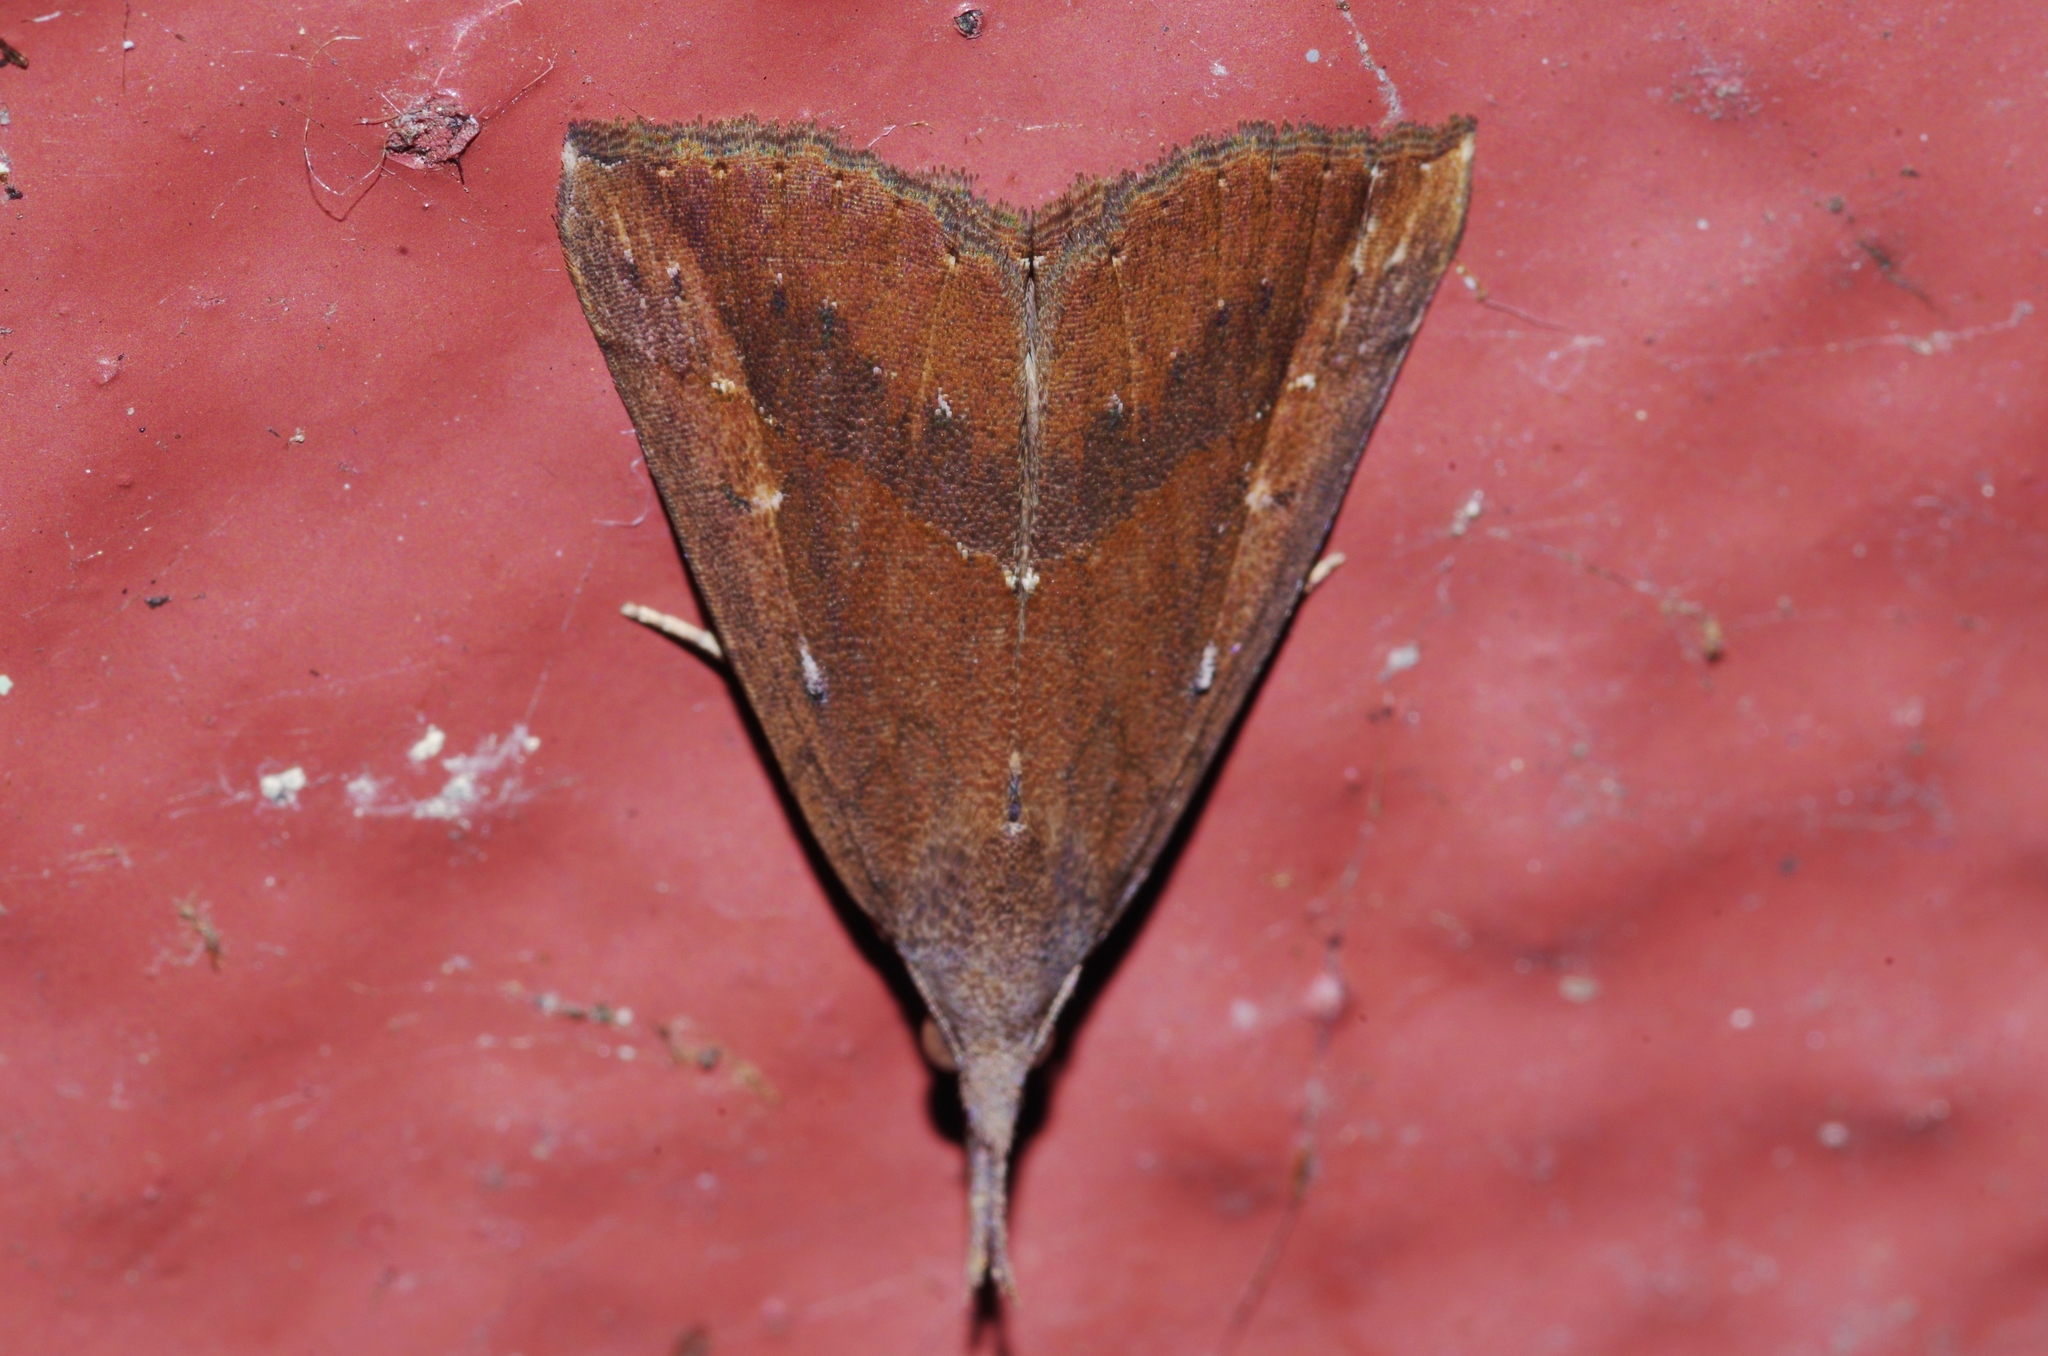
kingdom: Animalia
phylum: Arthropoda
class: Insecta
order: Lepidoptera
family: Erebidae
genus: Hypena
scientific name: Hypena subcyanea
